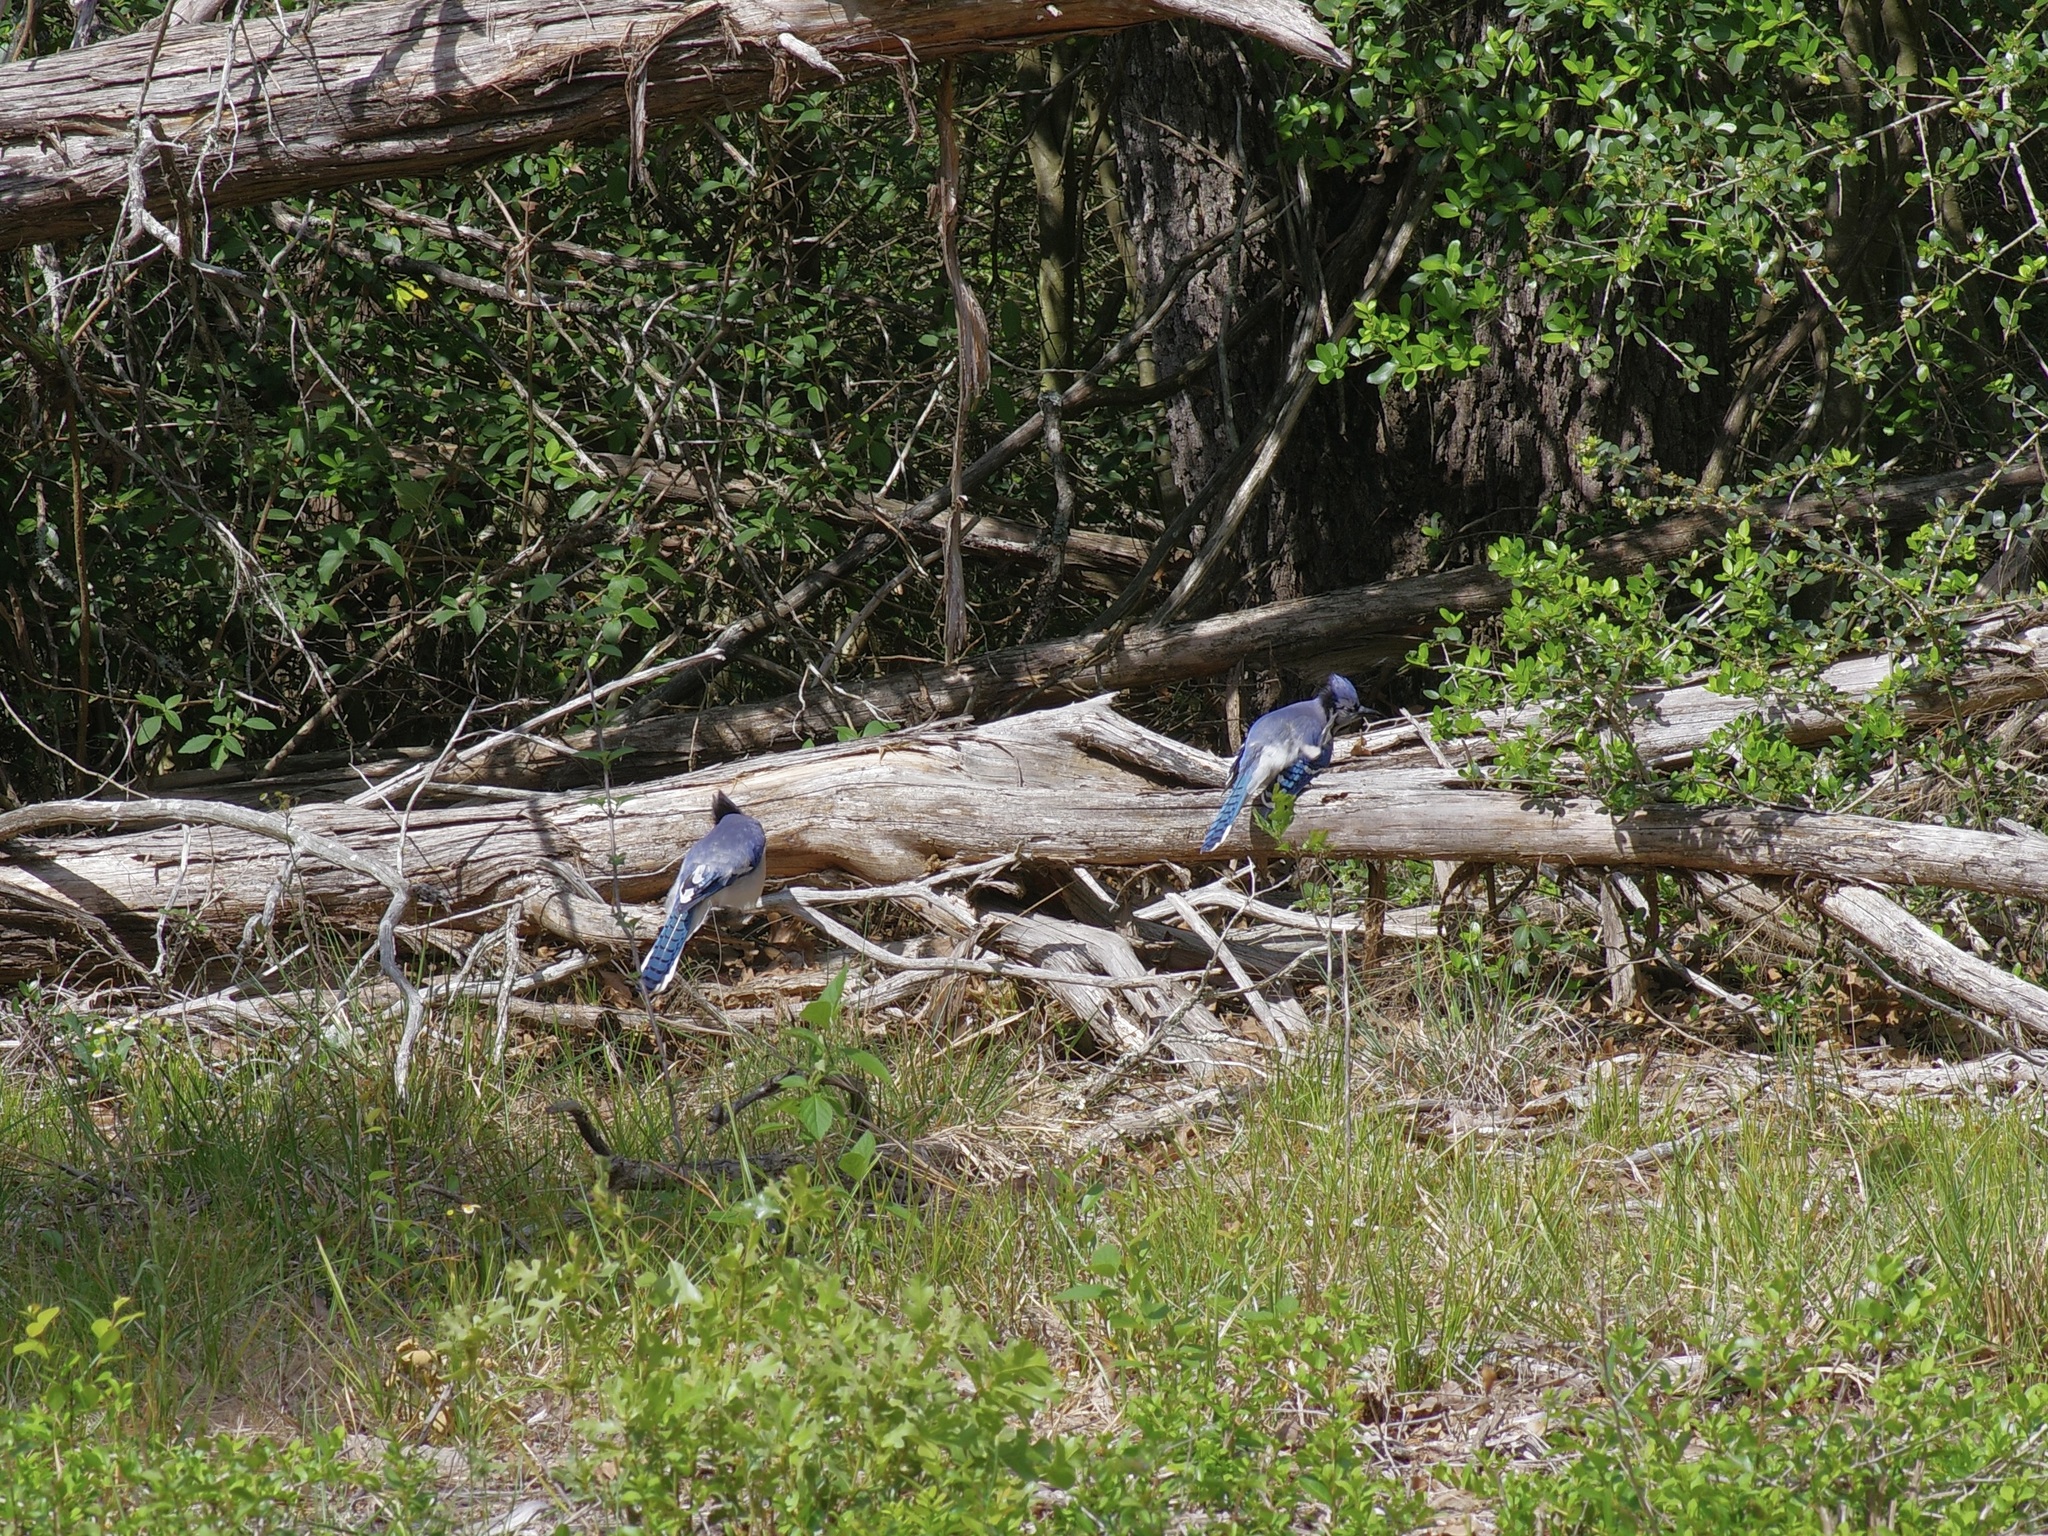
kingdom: Animalia
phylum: Chordata
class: Aves
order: Passeriformes
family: Corvidae
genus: Cyanocitta
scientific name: Cyanocitta cristata
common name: Blue jay
